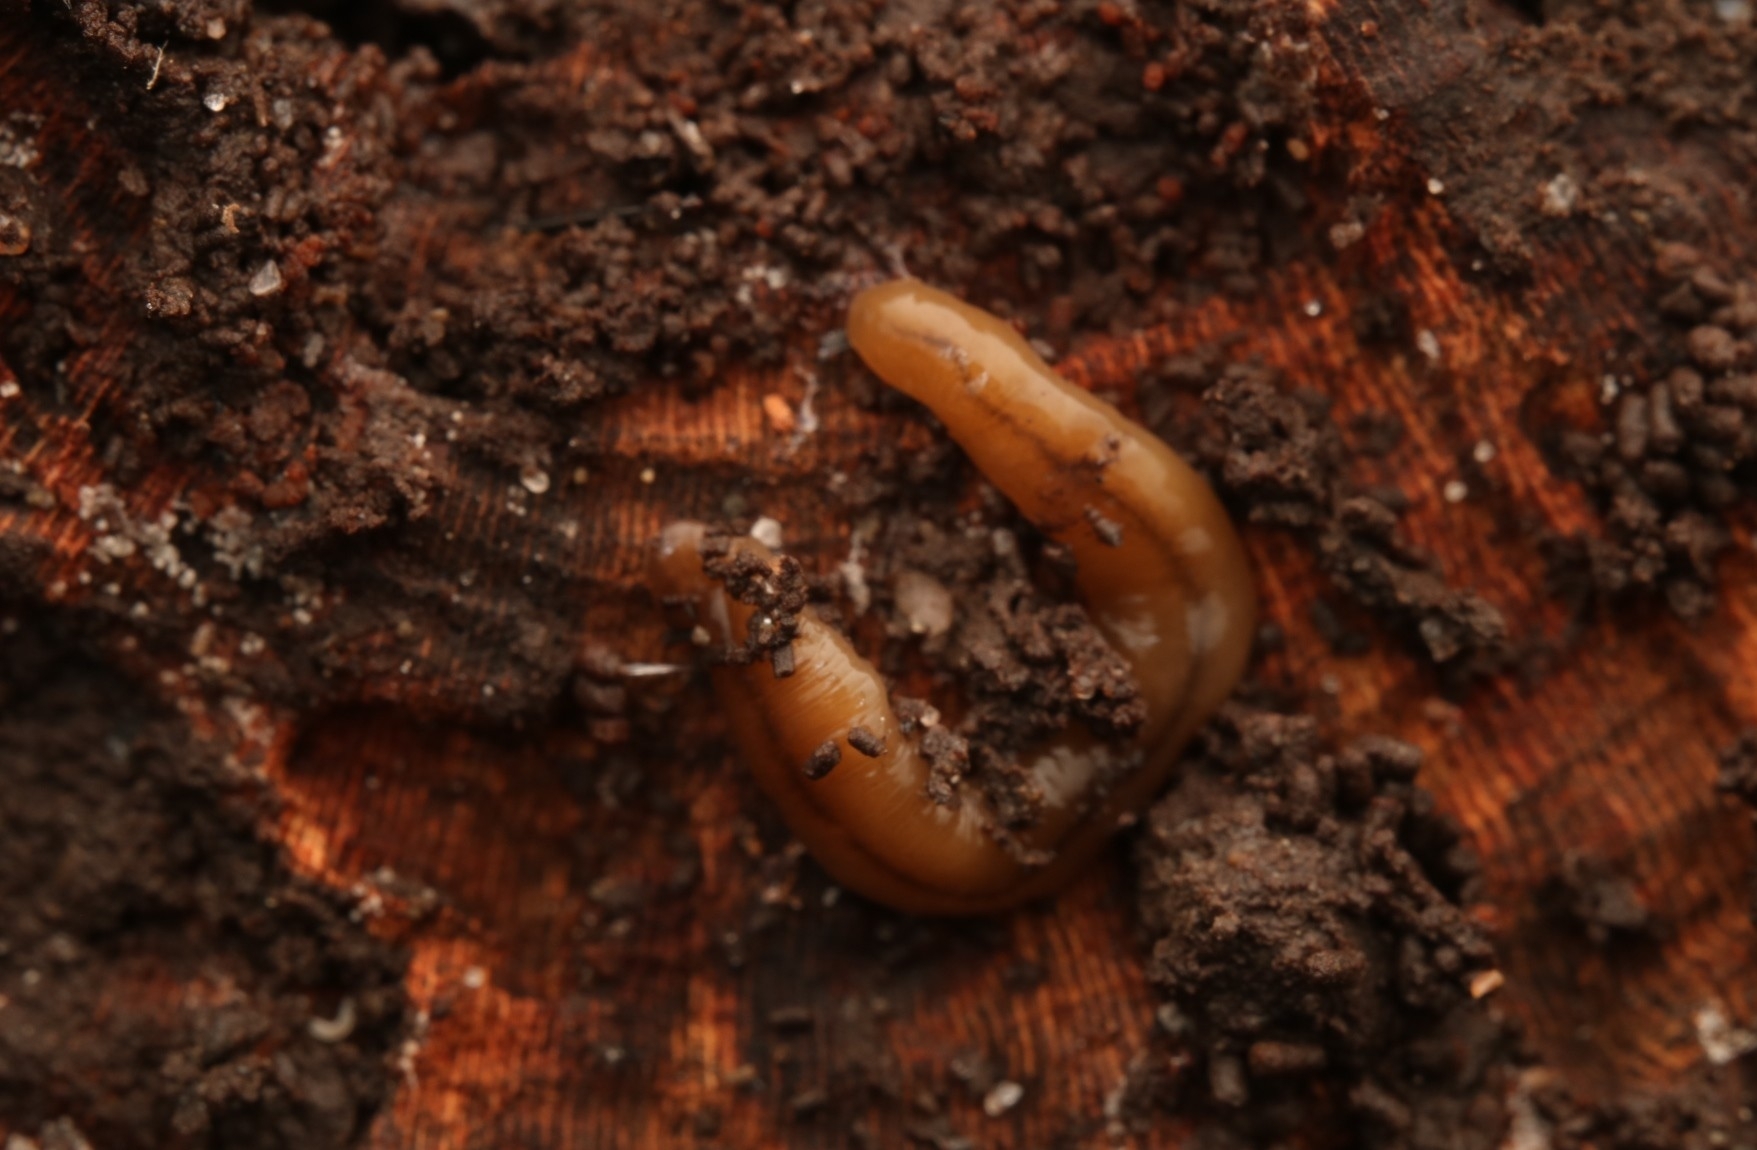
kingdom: Animalia
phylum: Platyhelminthes
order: Tricladida
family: Geoplanidae
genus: Bipalium
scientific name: Bipalium adventitium
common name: Land planarian
